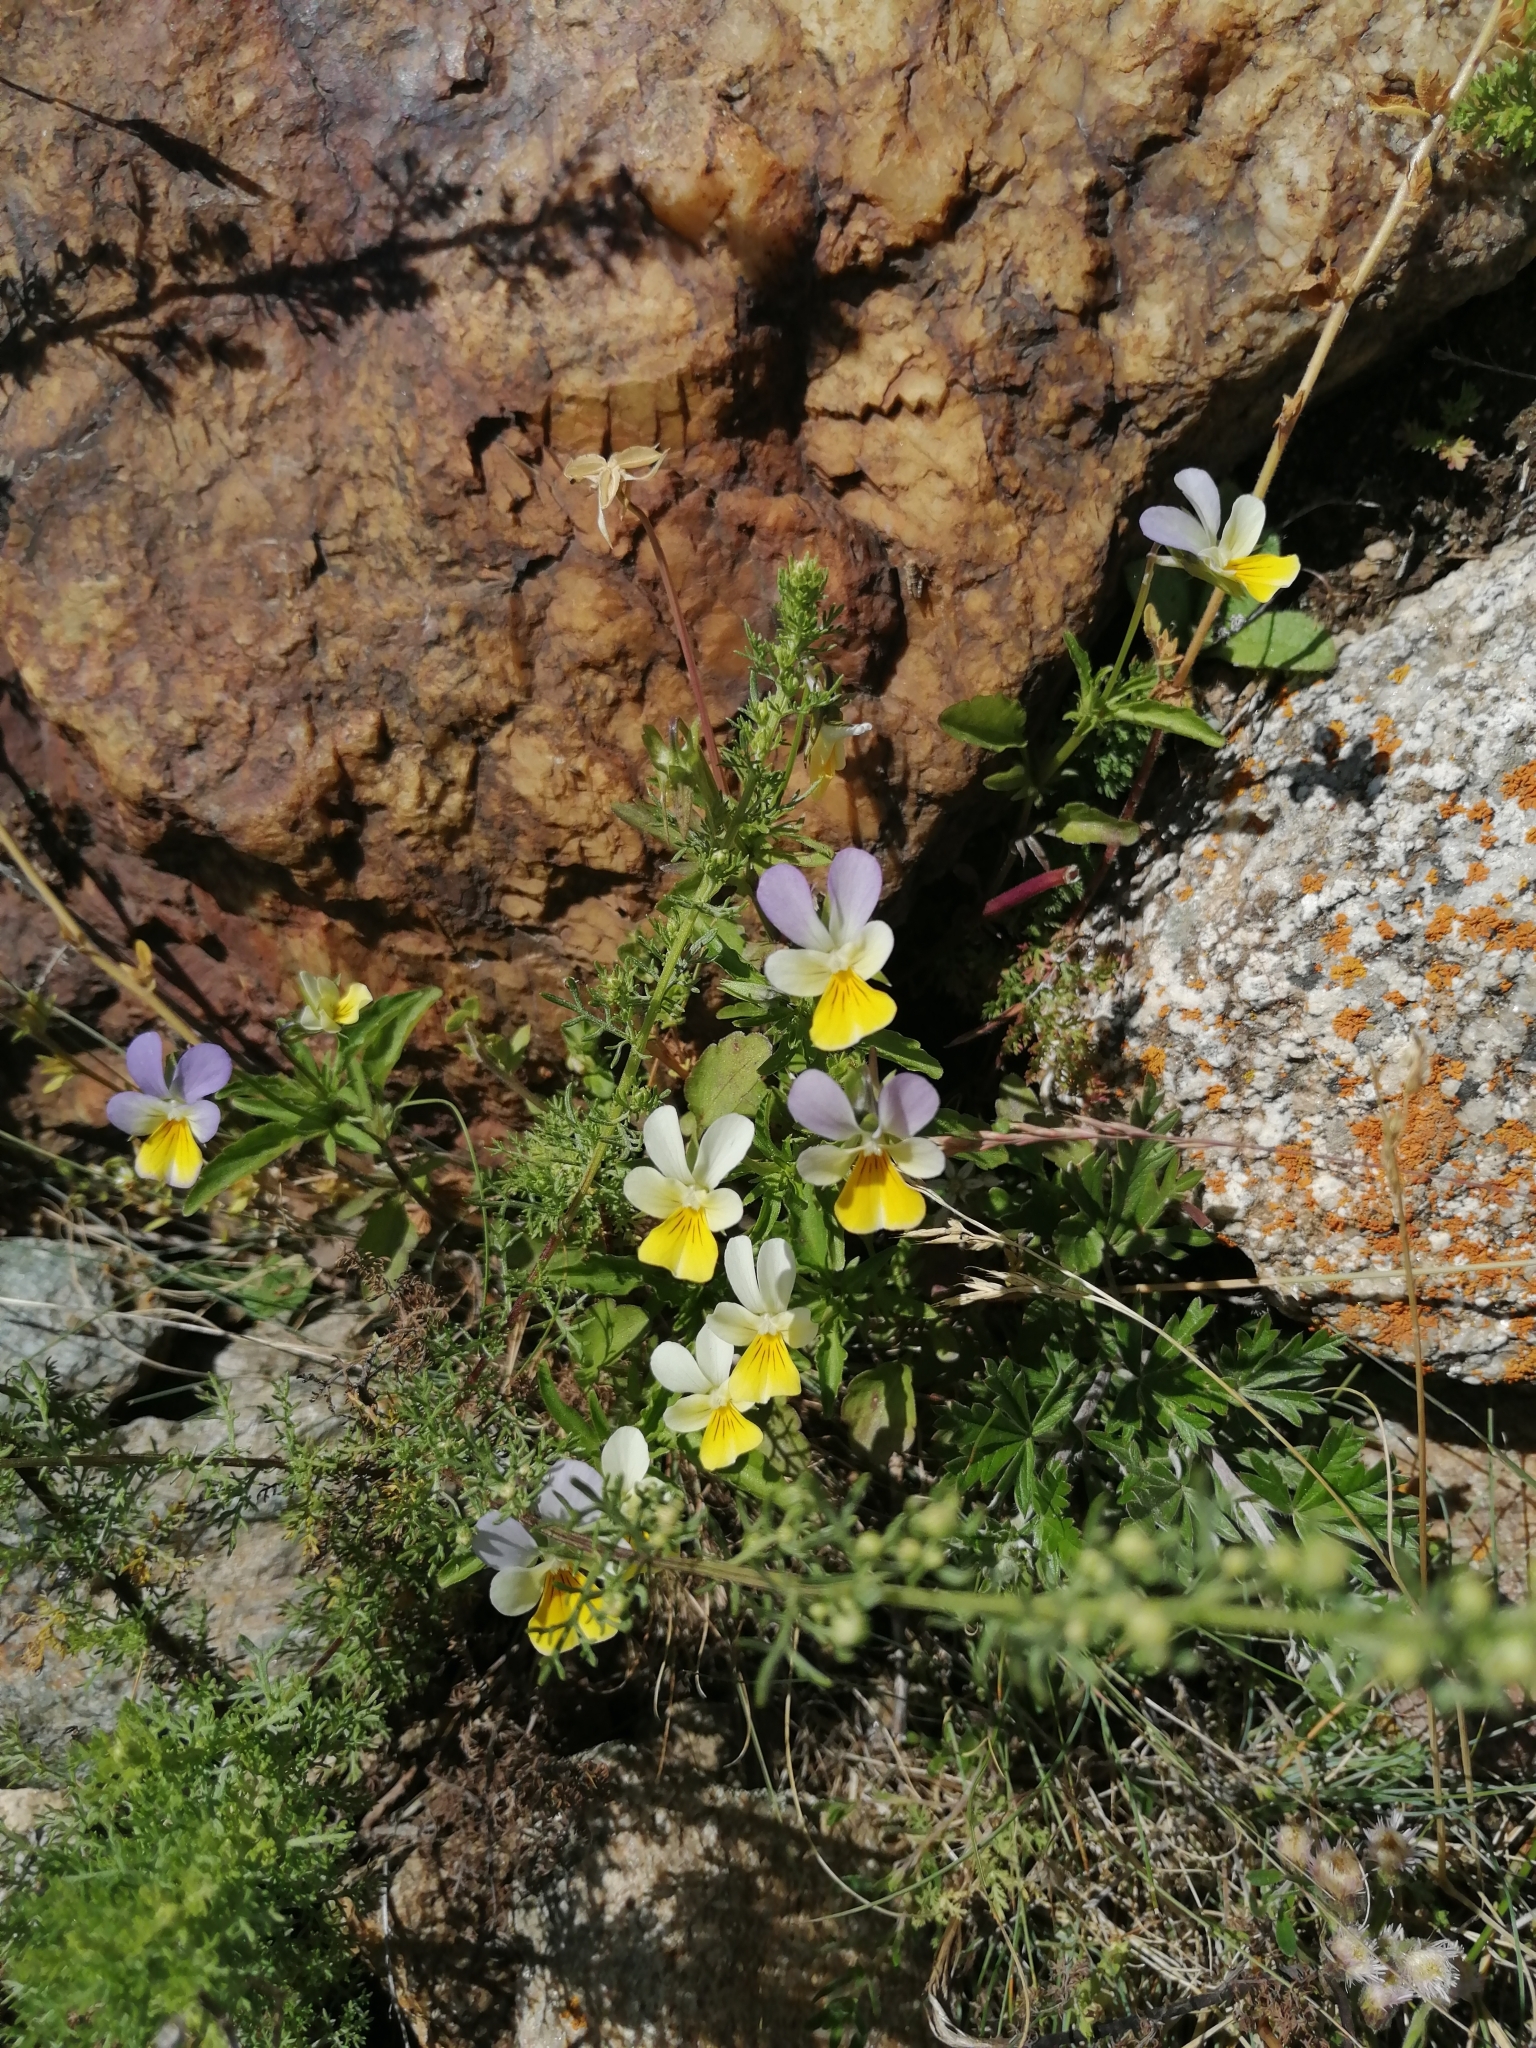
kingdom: Plantae
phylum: Tracheophyta
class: Magnoliopsida
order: Malpighiales
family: Violaceae
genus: Viola
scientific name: Viola tricolor
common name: Pansy
